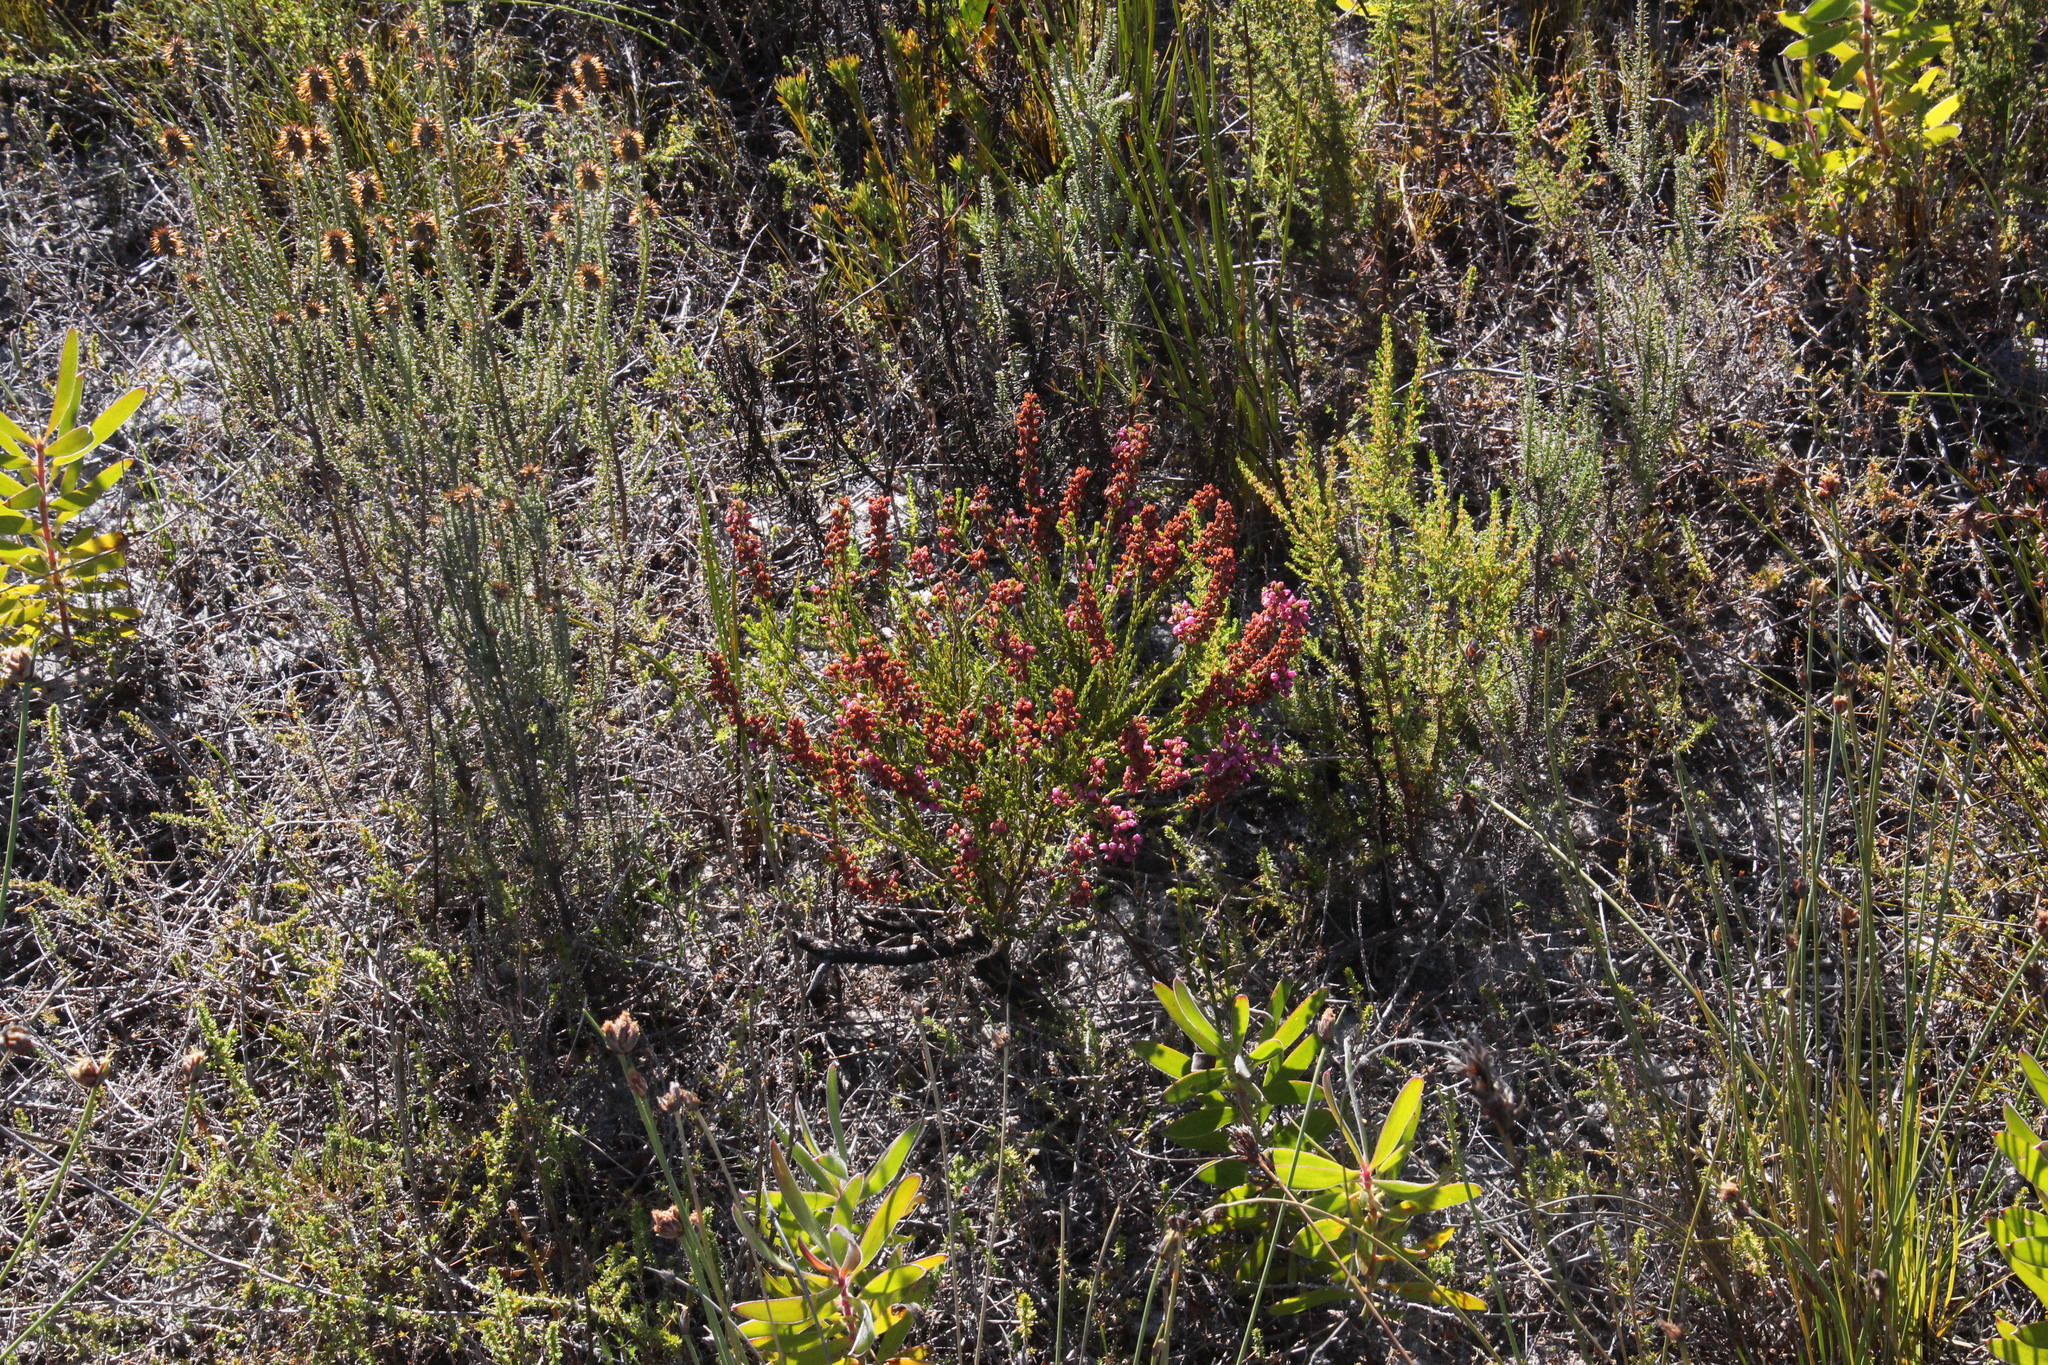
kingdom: Plantae
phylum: Tracheophyta
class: Magnoliopsida
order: Ericales
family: Ericaceae
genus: Erica
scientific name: Erica pulchella
